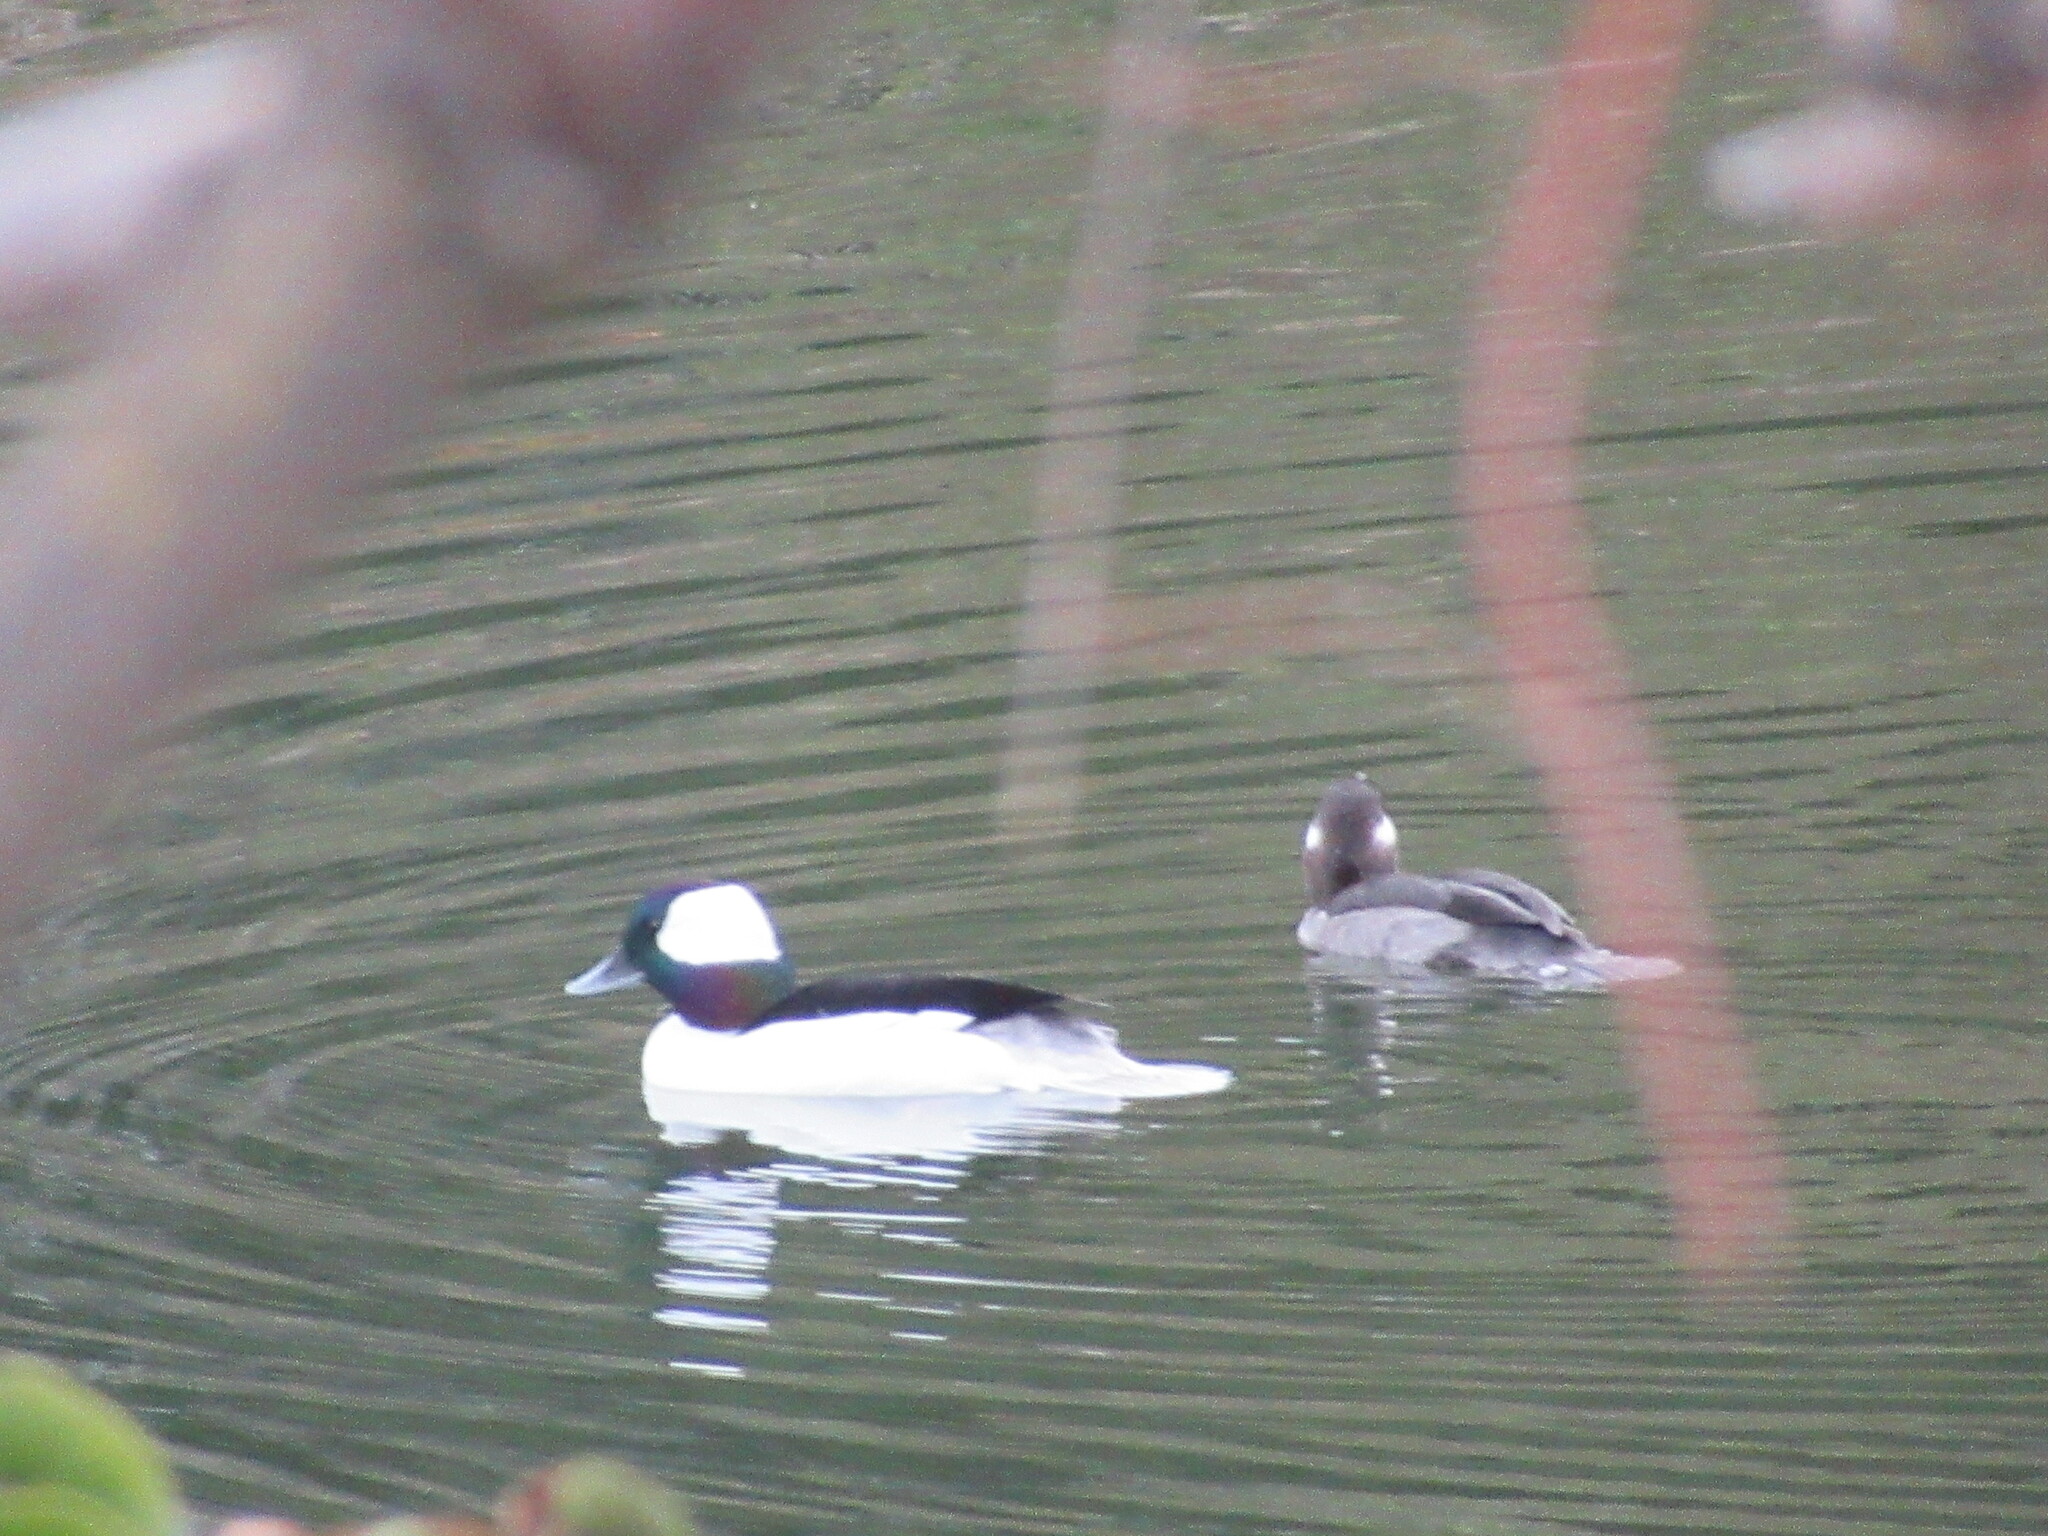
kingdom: Animalia
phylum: Chordata
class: Aves
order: Anseriformes
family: Anatidae
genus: Bucephala
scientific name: Bucephala albeola
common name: Bufflehead
